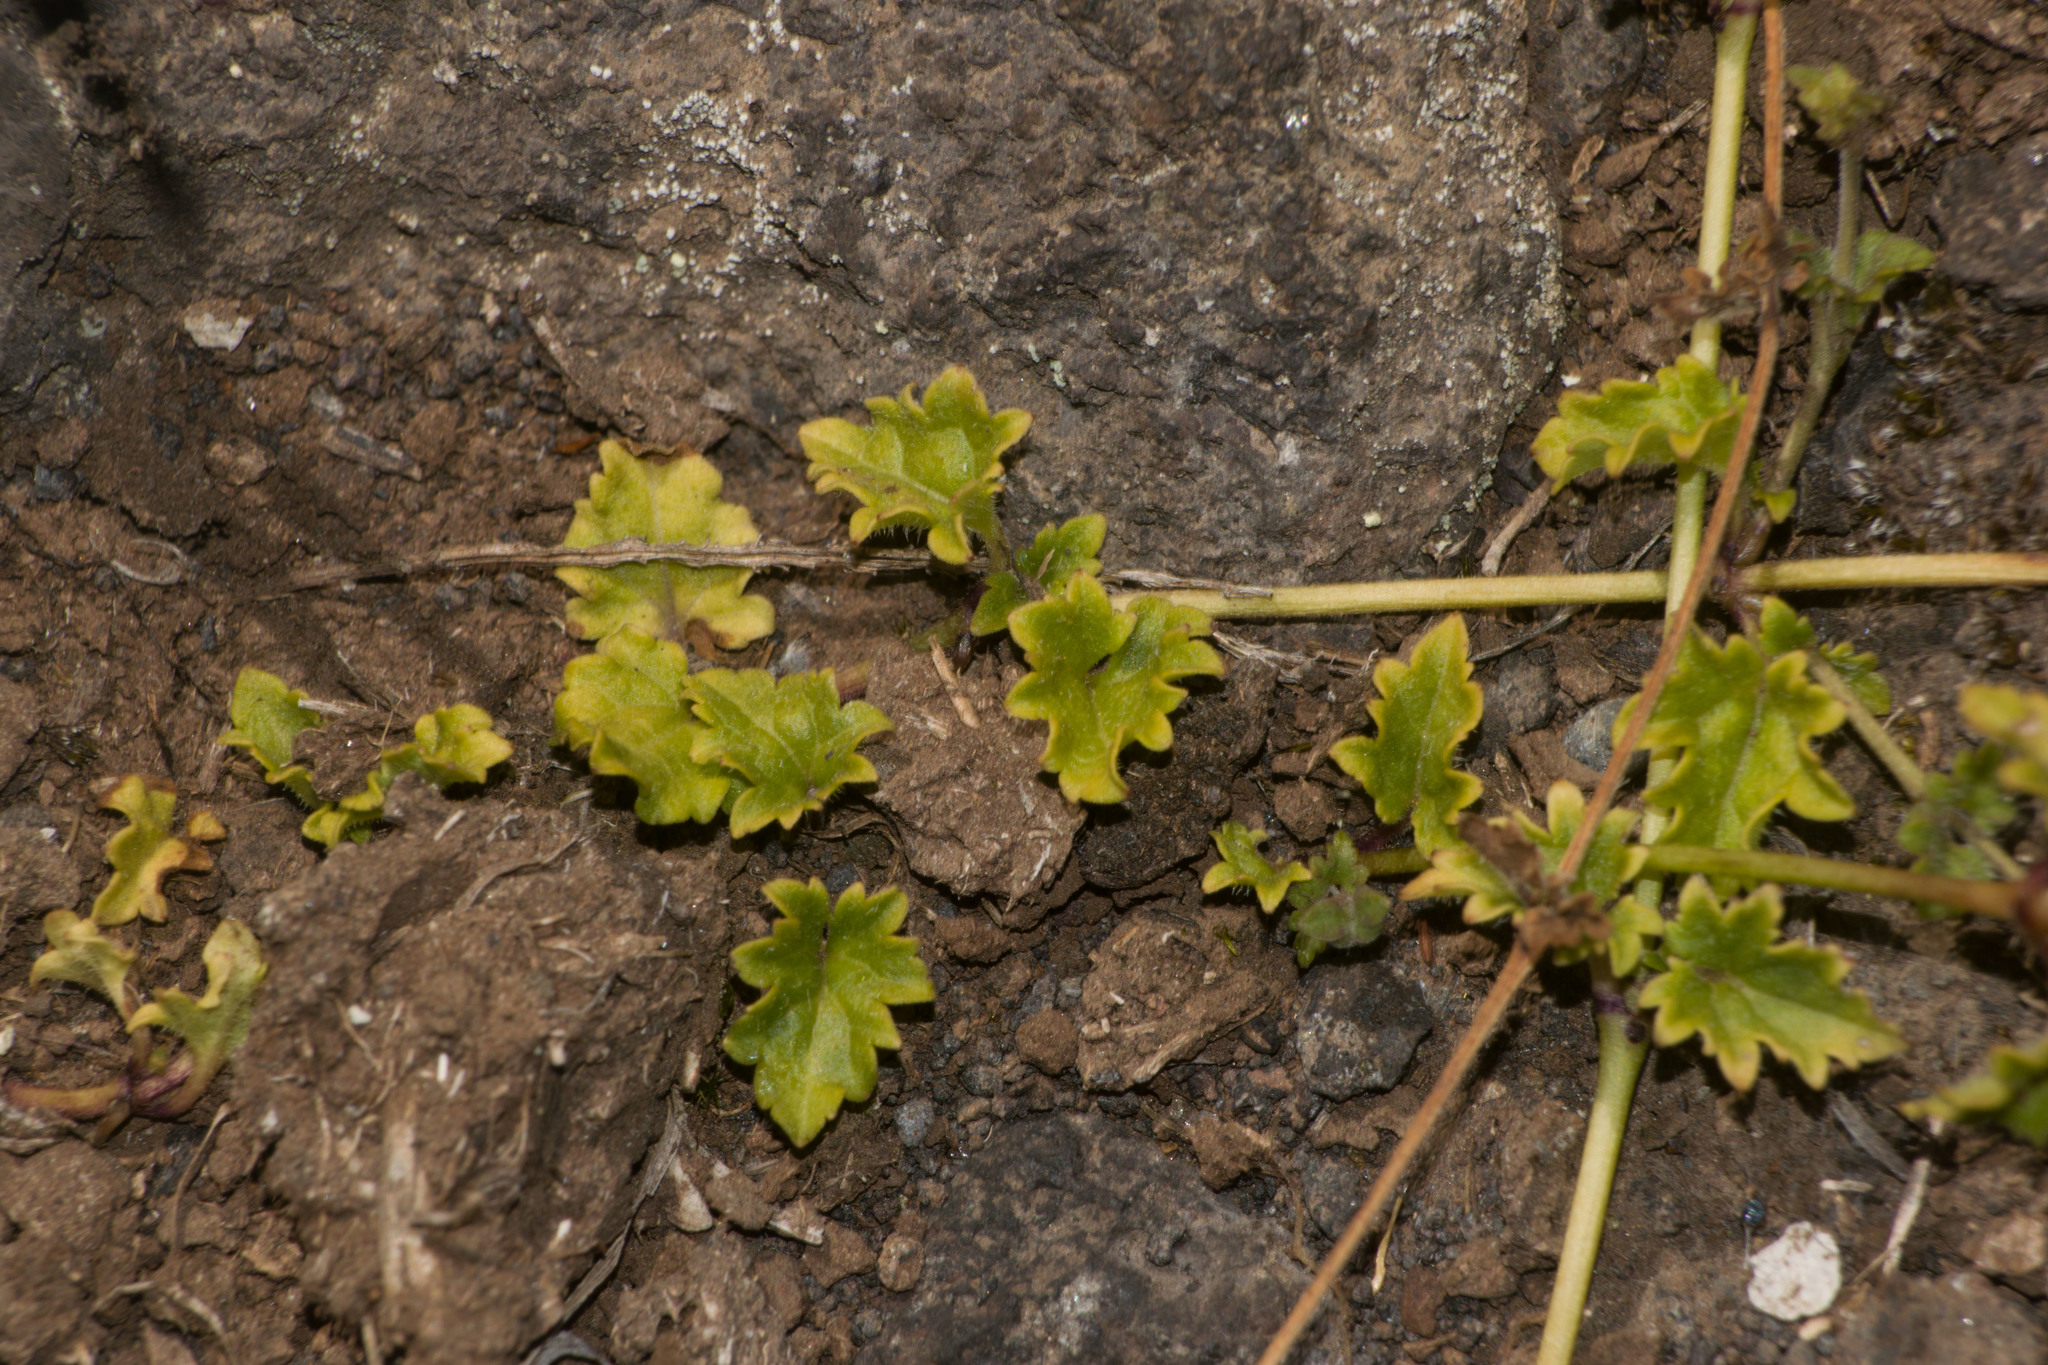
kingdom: Plantae
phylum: Tracheophyta
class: Magnoliopsida
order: Lamiales
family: Plantaginaceae
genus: Veronica
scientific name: Veronica plebeia
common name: Speedwell
